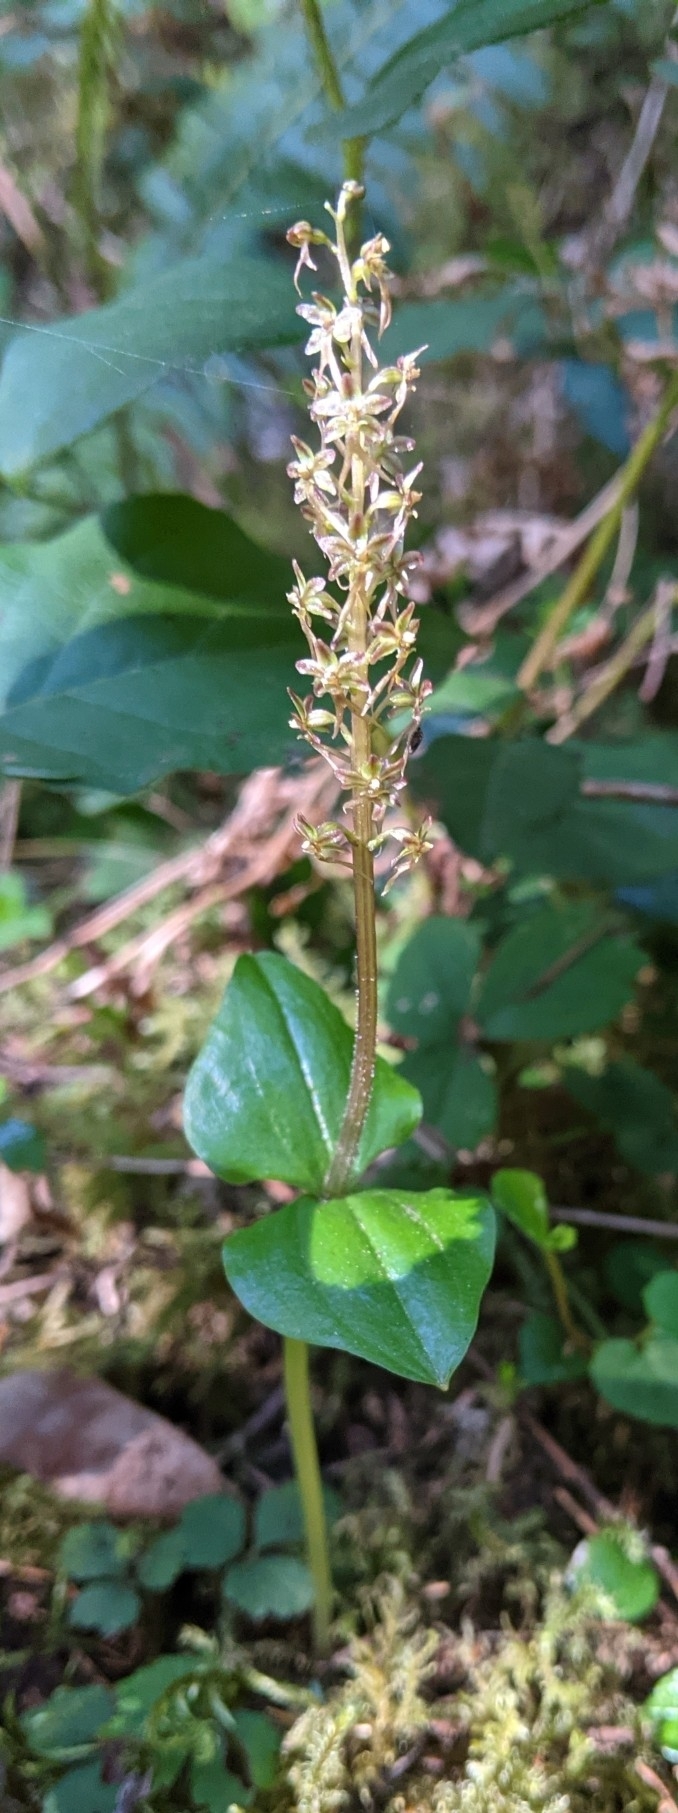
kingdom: Plantae
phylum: Tracheophyta
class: Liliopsida
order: Asparagales
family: Orchidaceae
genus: Neottia
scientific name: Neottia cordata
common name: Lesser twayblade
